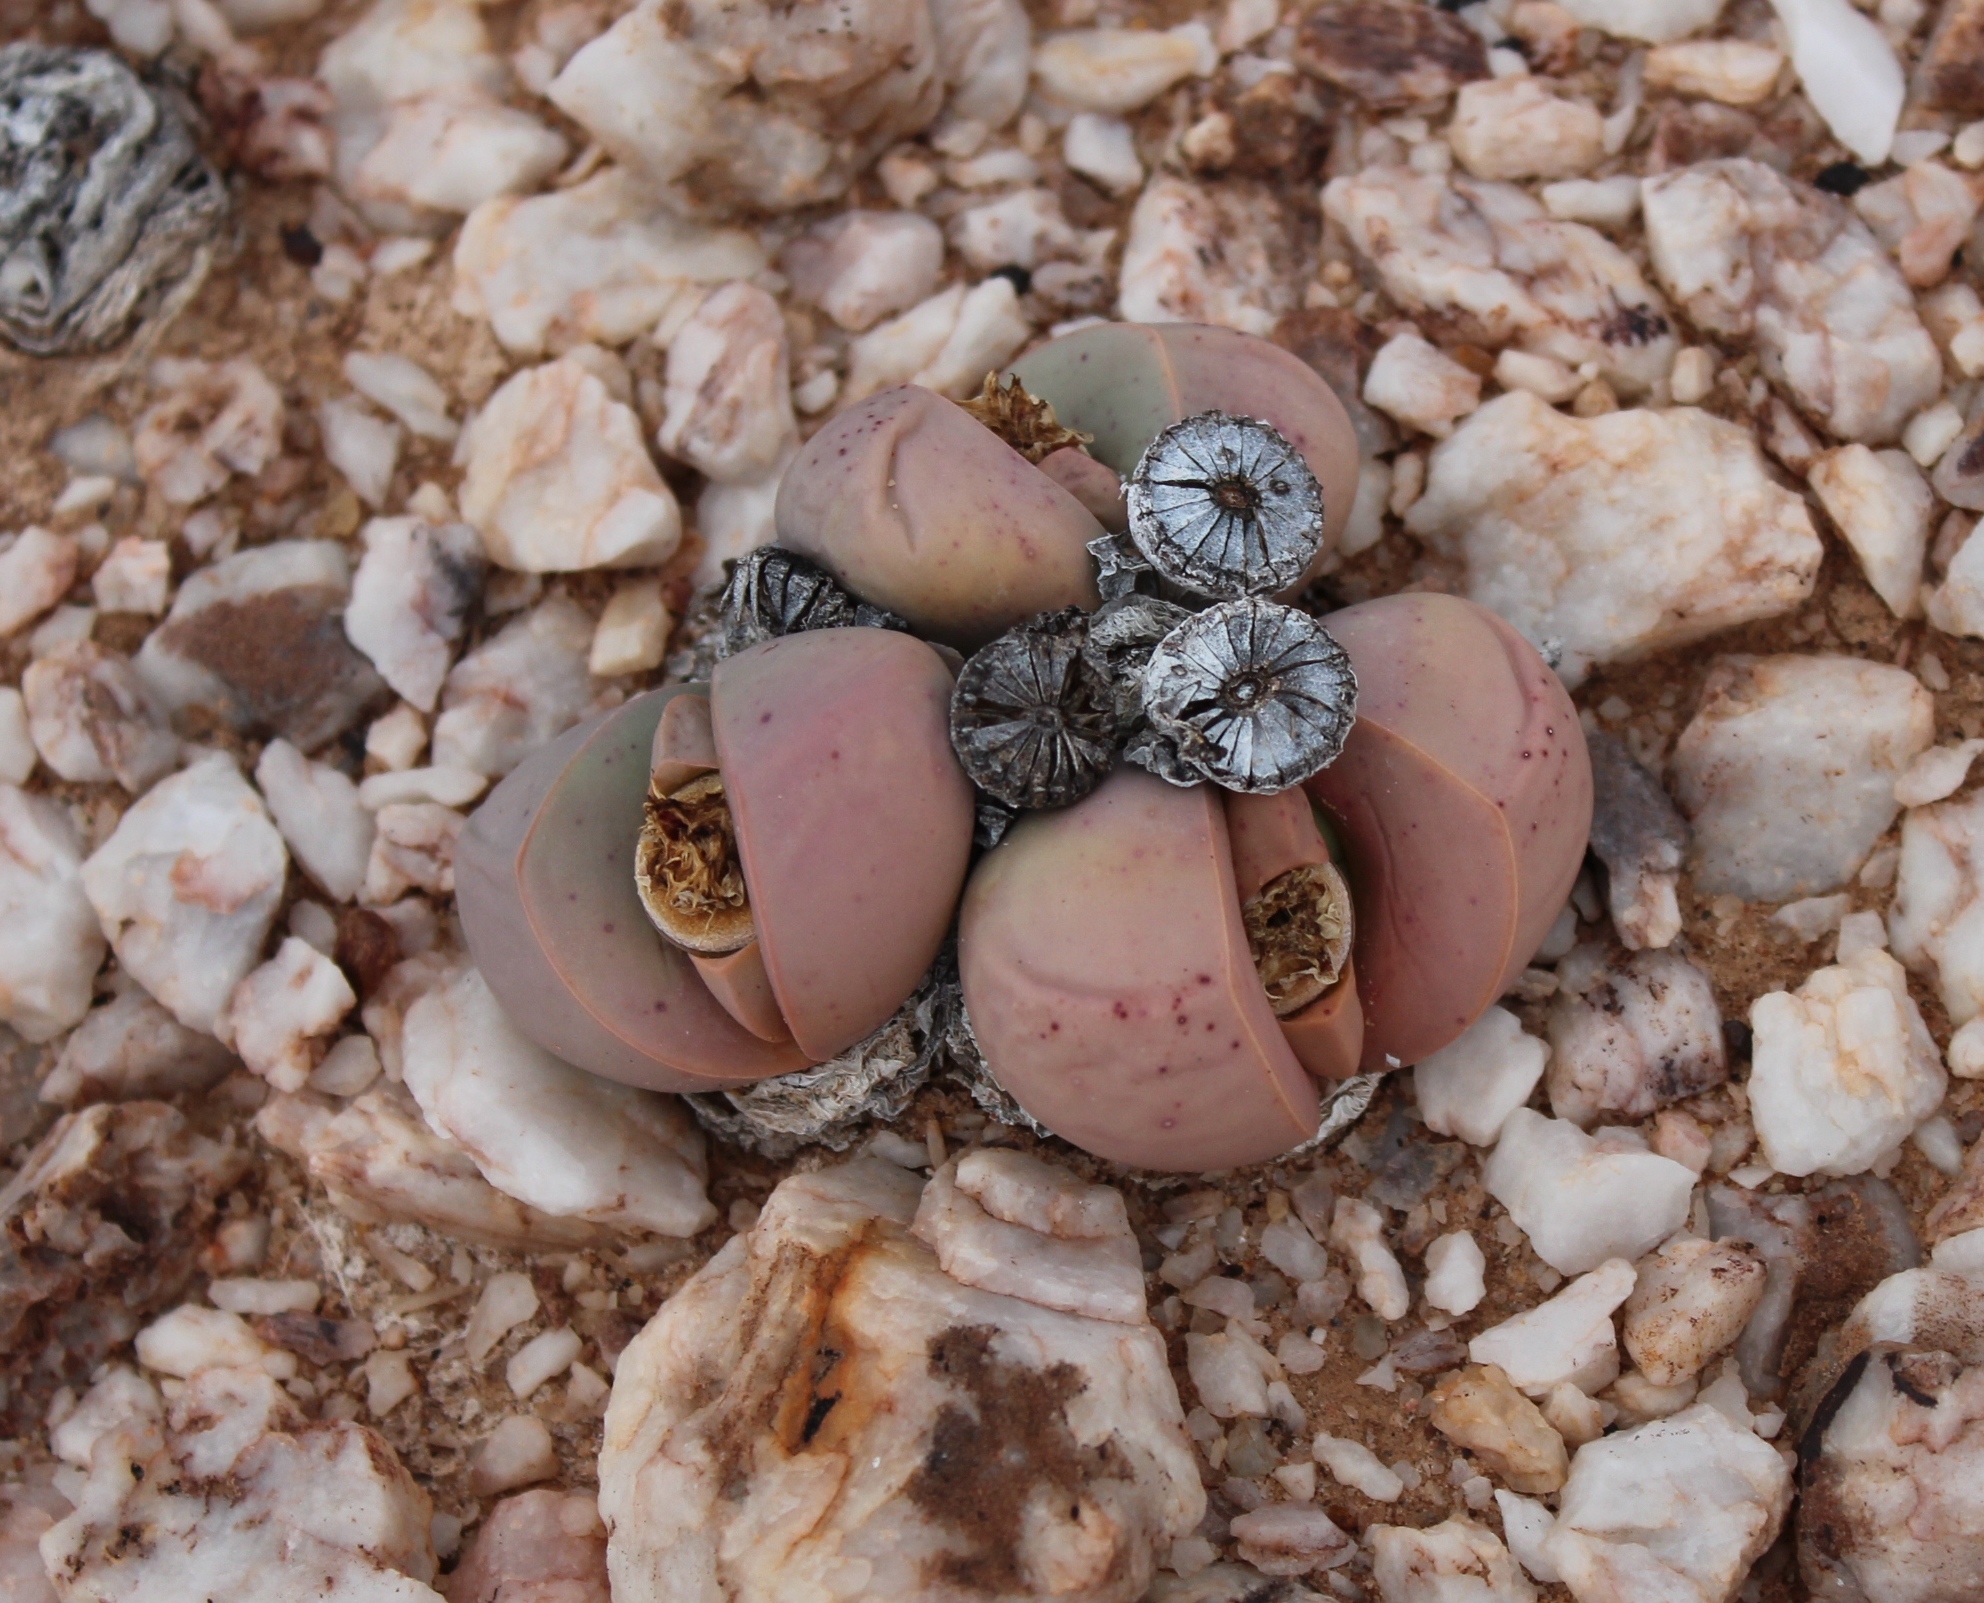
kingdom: Plantae
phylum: Tracheophyta
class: Magnoliopsida
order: Caryophyllales
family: Aizoaceae
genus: Argyroderma
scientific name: Argyroderma delaetii
